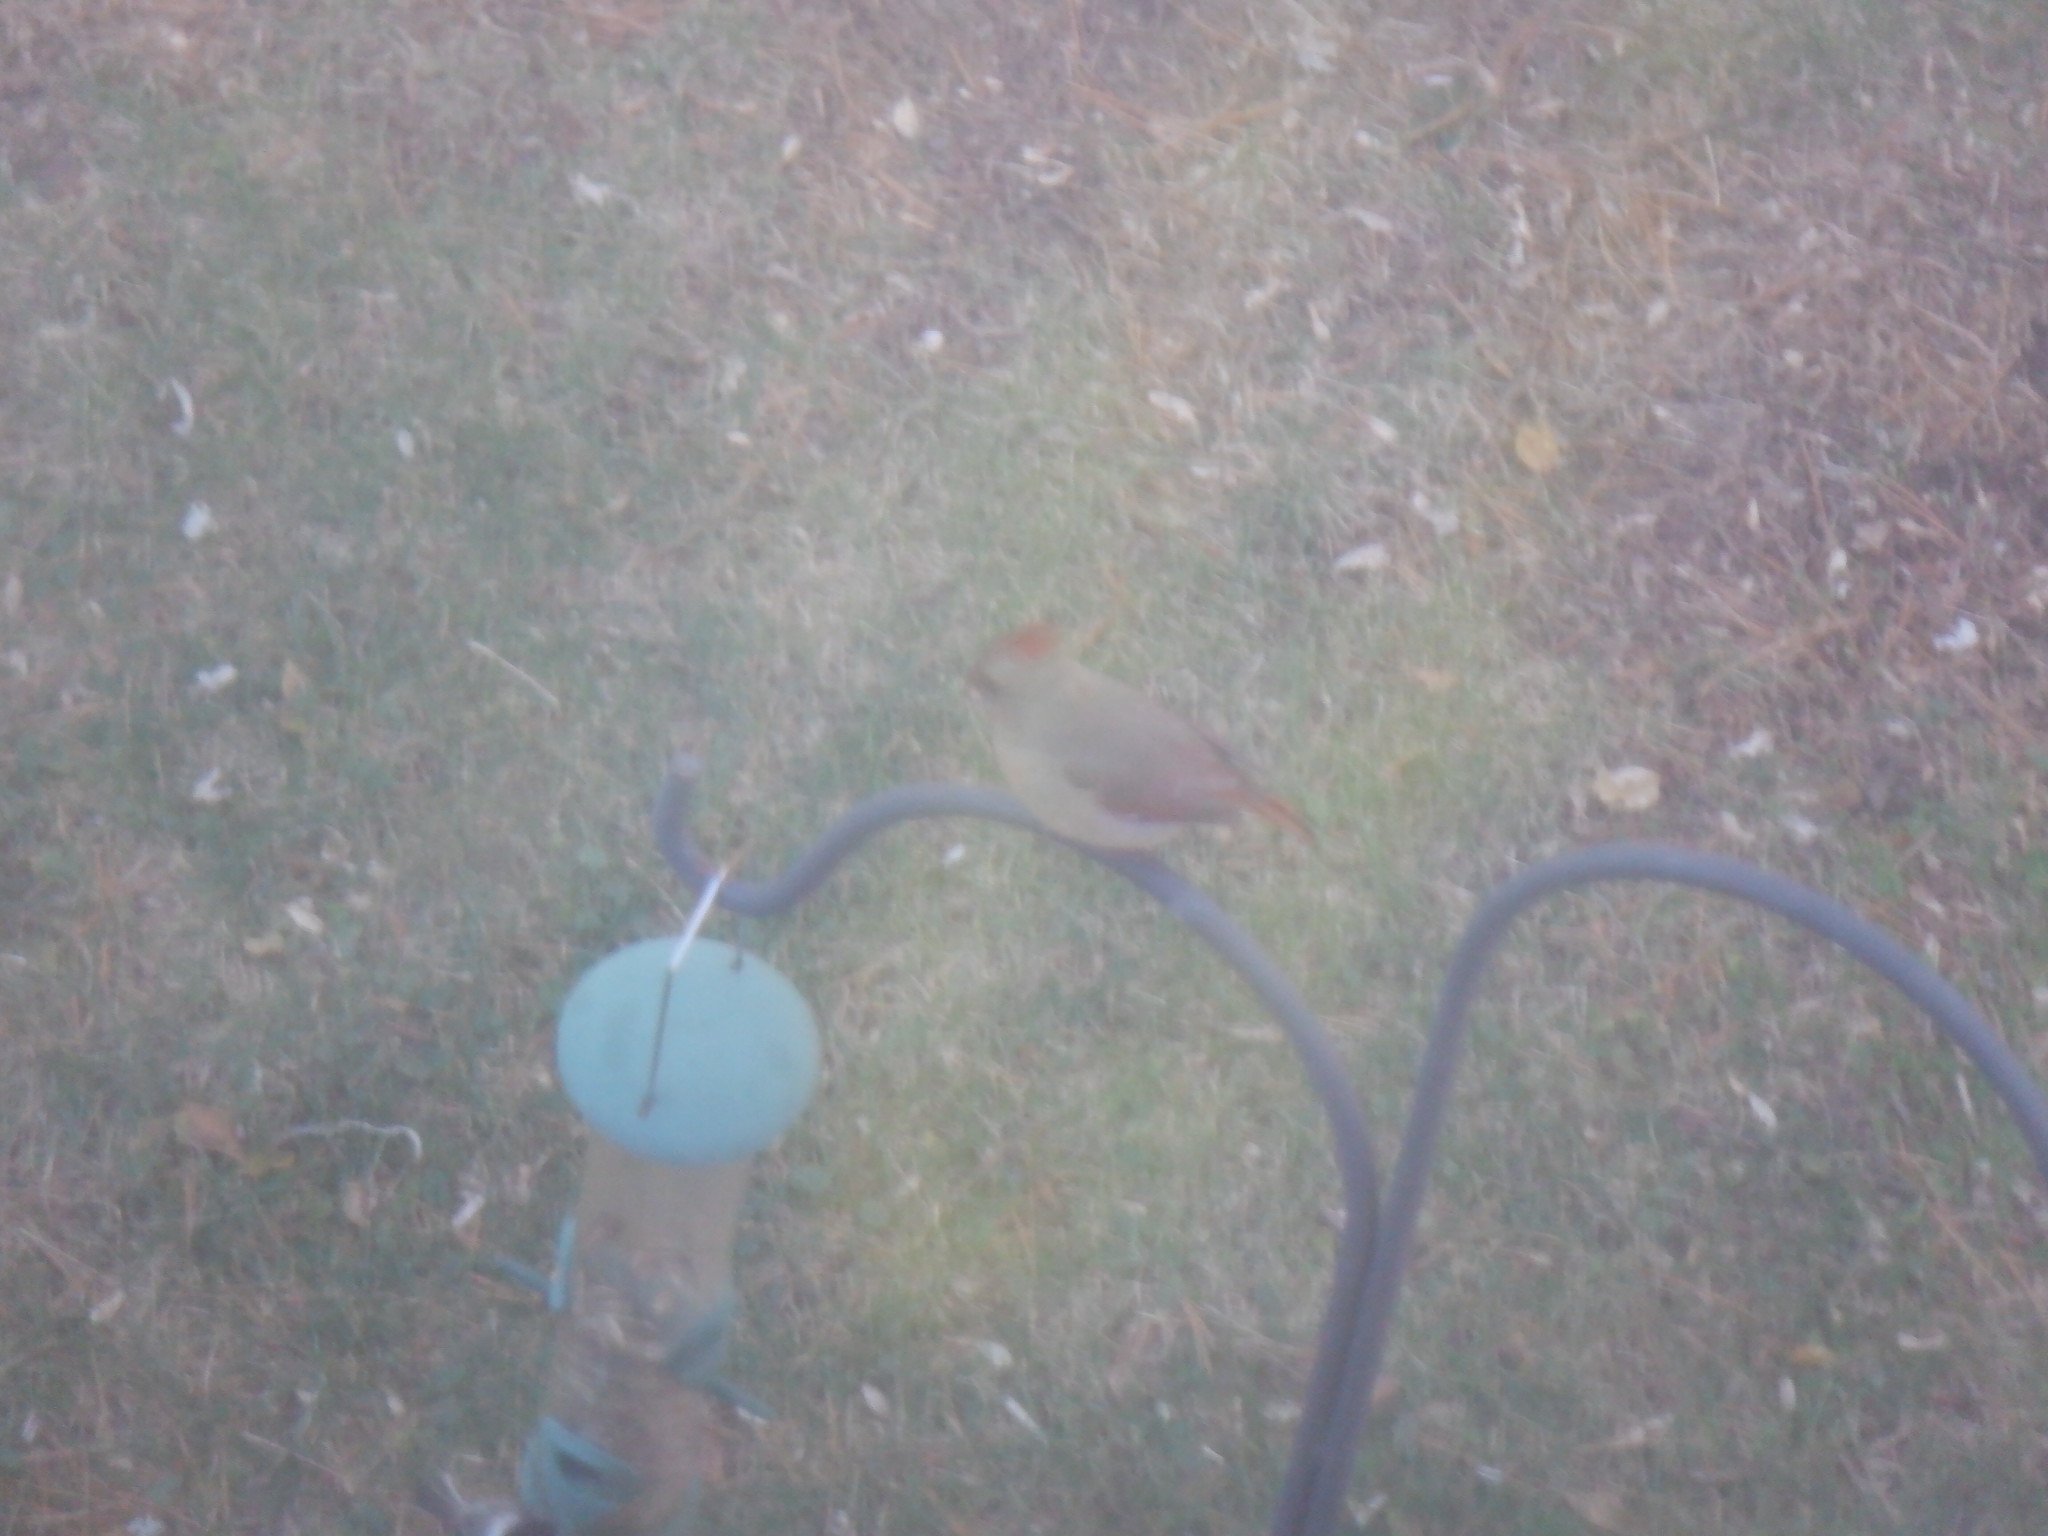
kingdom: Animalia
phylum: Chordata
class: Aves
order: Passeriformes
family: Cardinalidae
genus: Cardinalis
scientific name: Cardinalis cardinalis
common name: Northern cardinal
